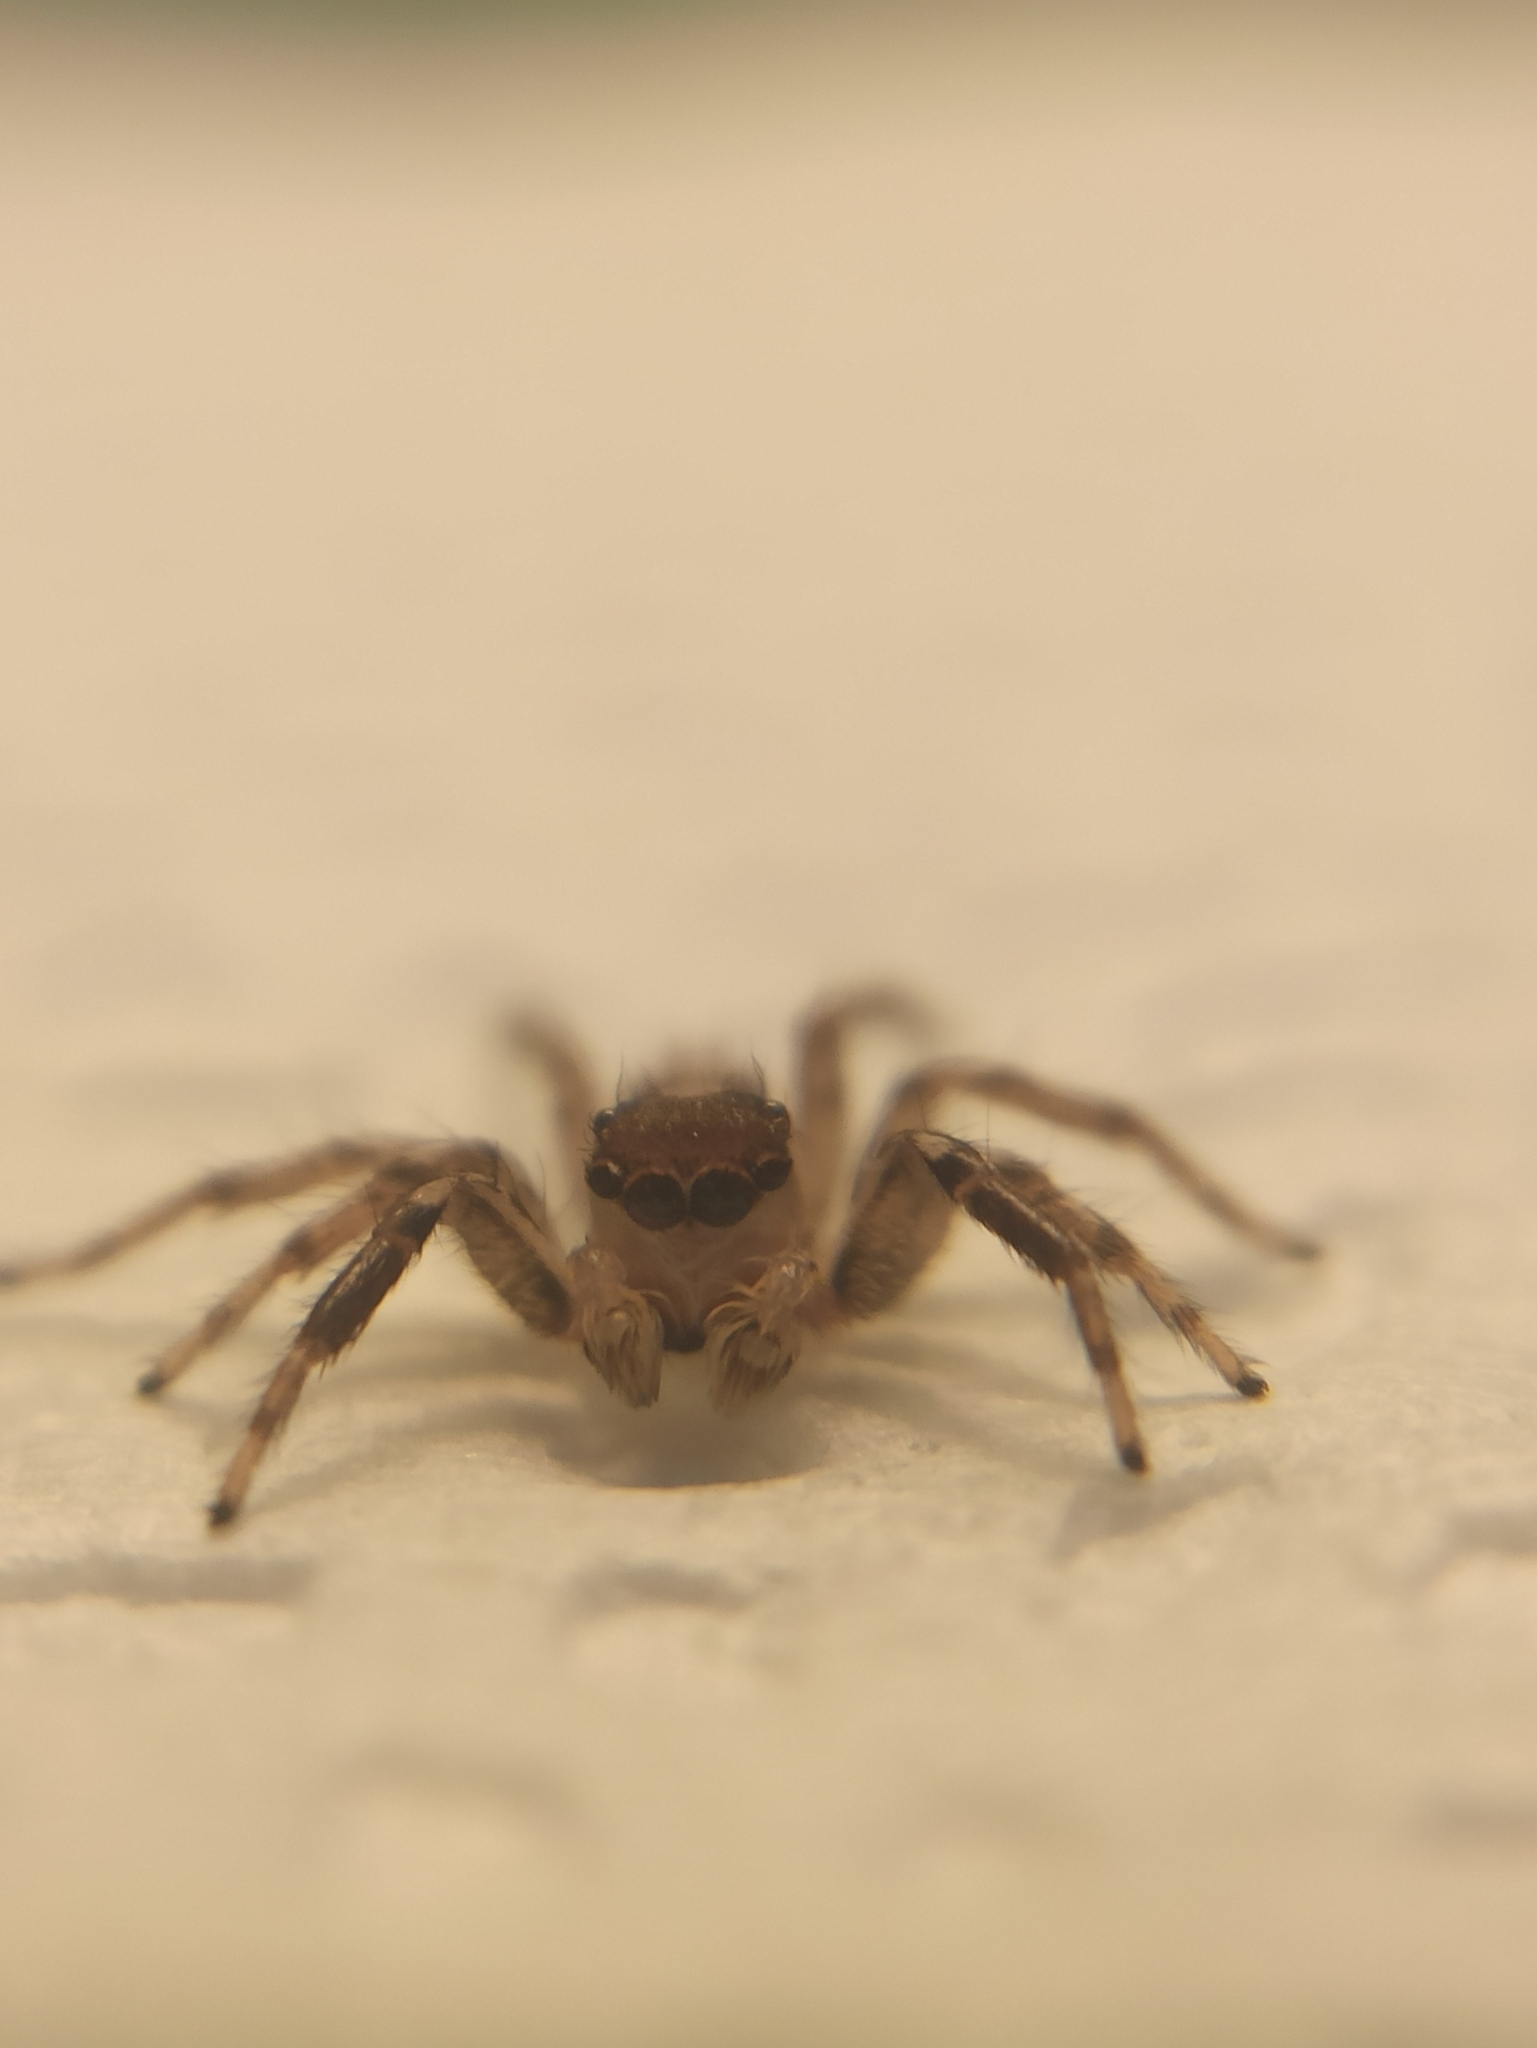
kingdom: Animalia
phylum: Arthropoda
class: Arachnida
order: Araneae
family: Salticidae
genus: Plexippus
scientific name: Plexippus strandi
